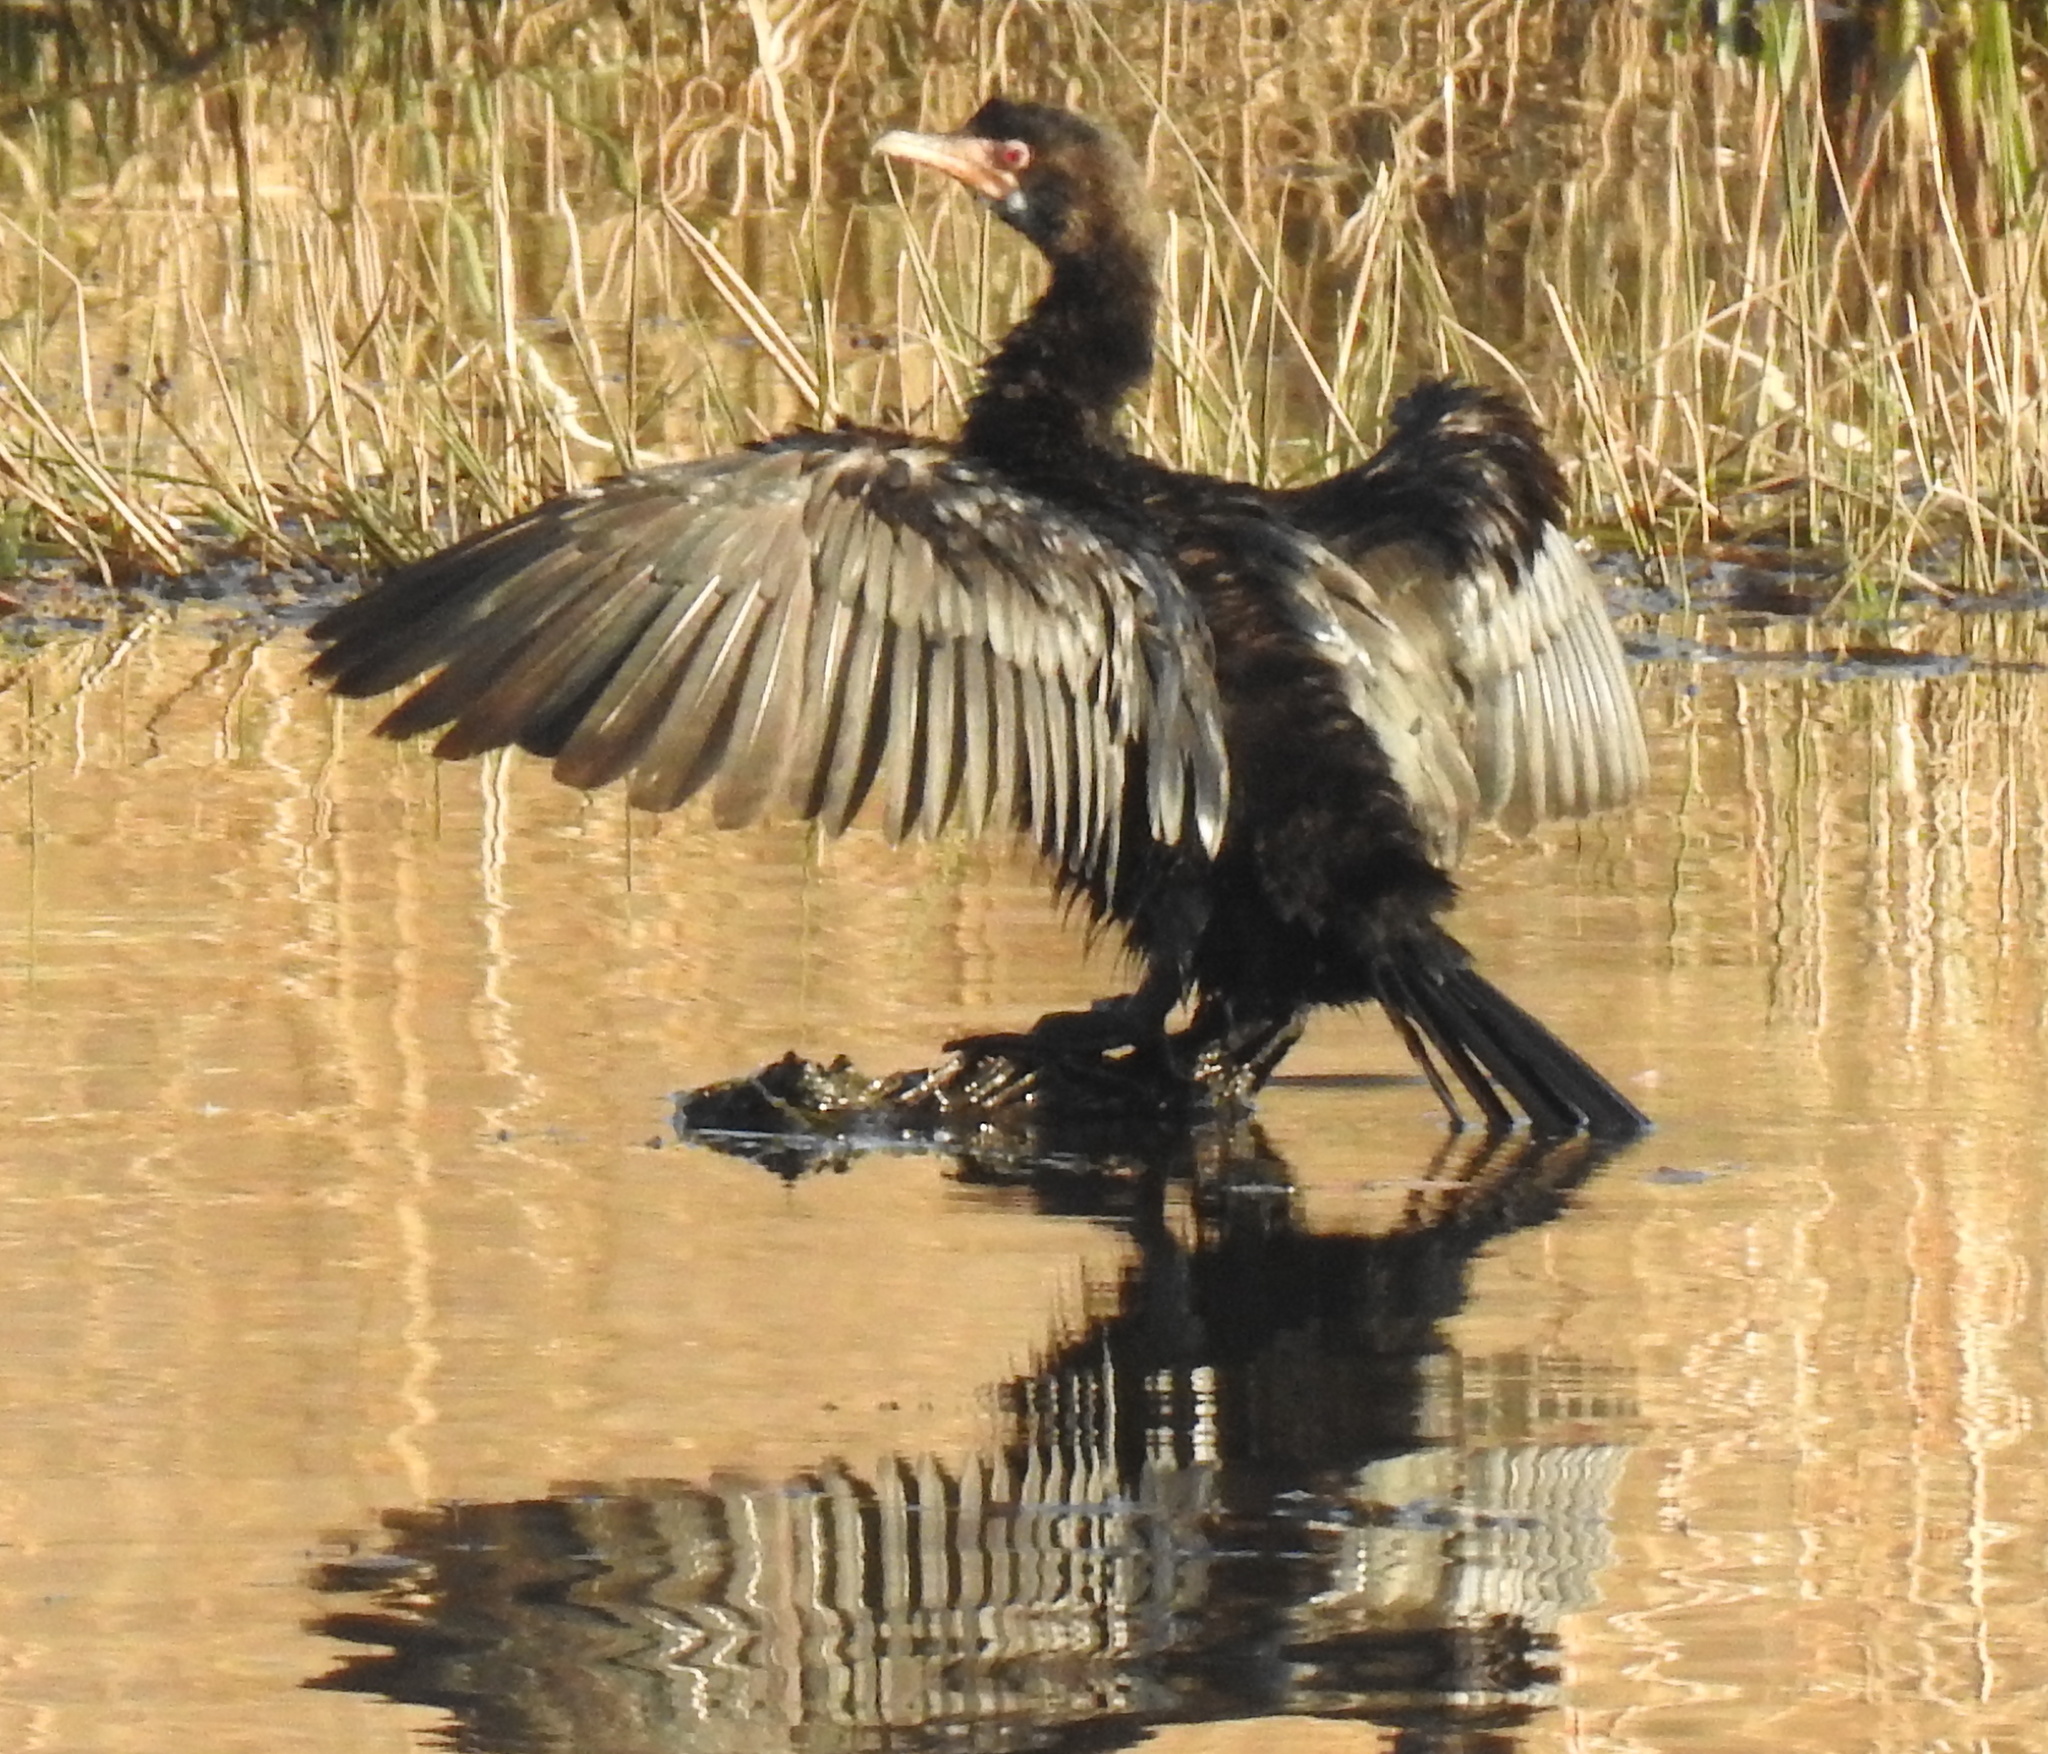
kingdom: Animalia
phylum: Chordata
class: Aves
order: Suliformes
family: Phalacrocoracidae
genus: Microcarbo
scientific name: Microcarbo africanus
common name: Long-tailed cormorant
